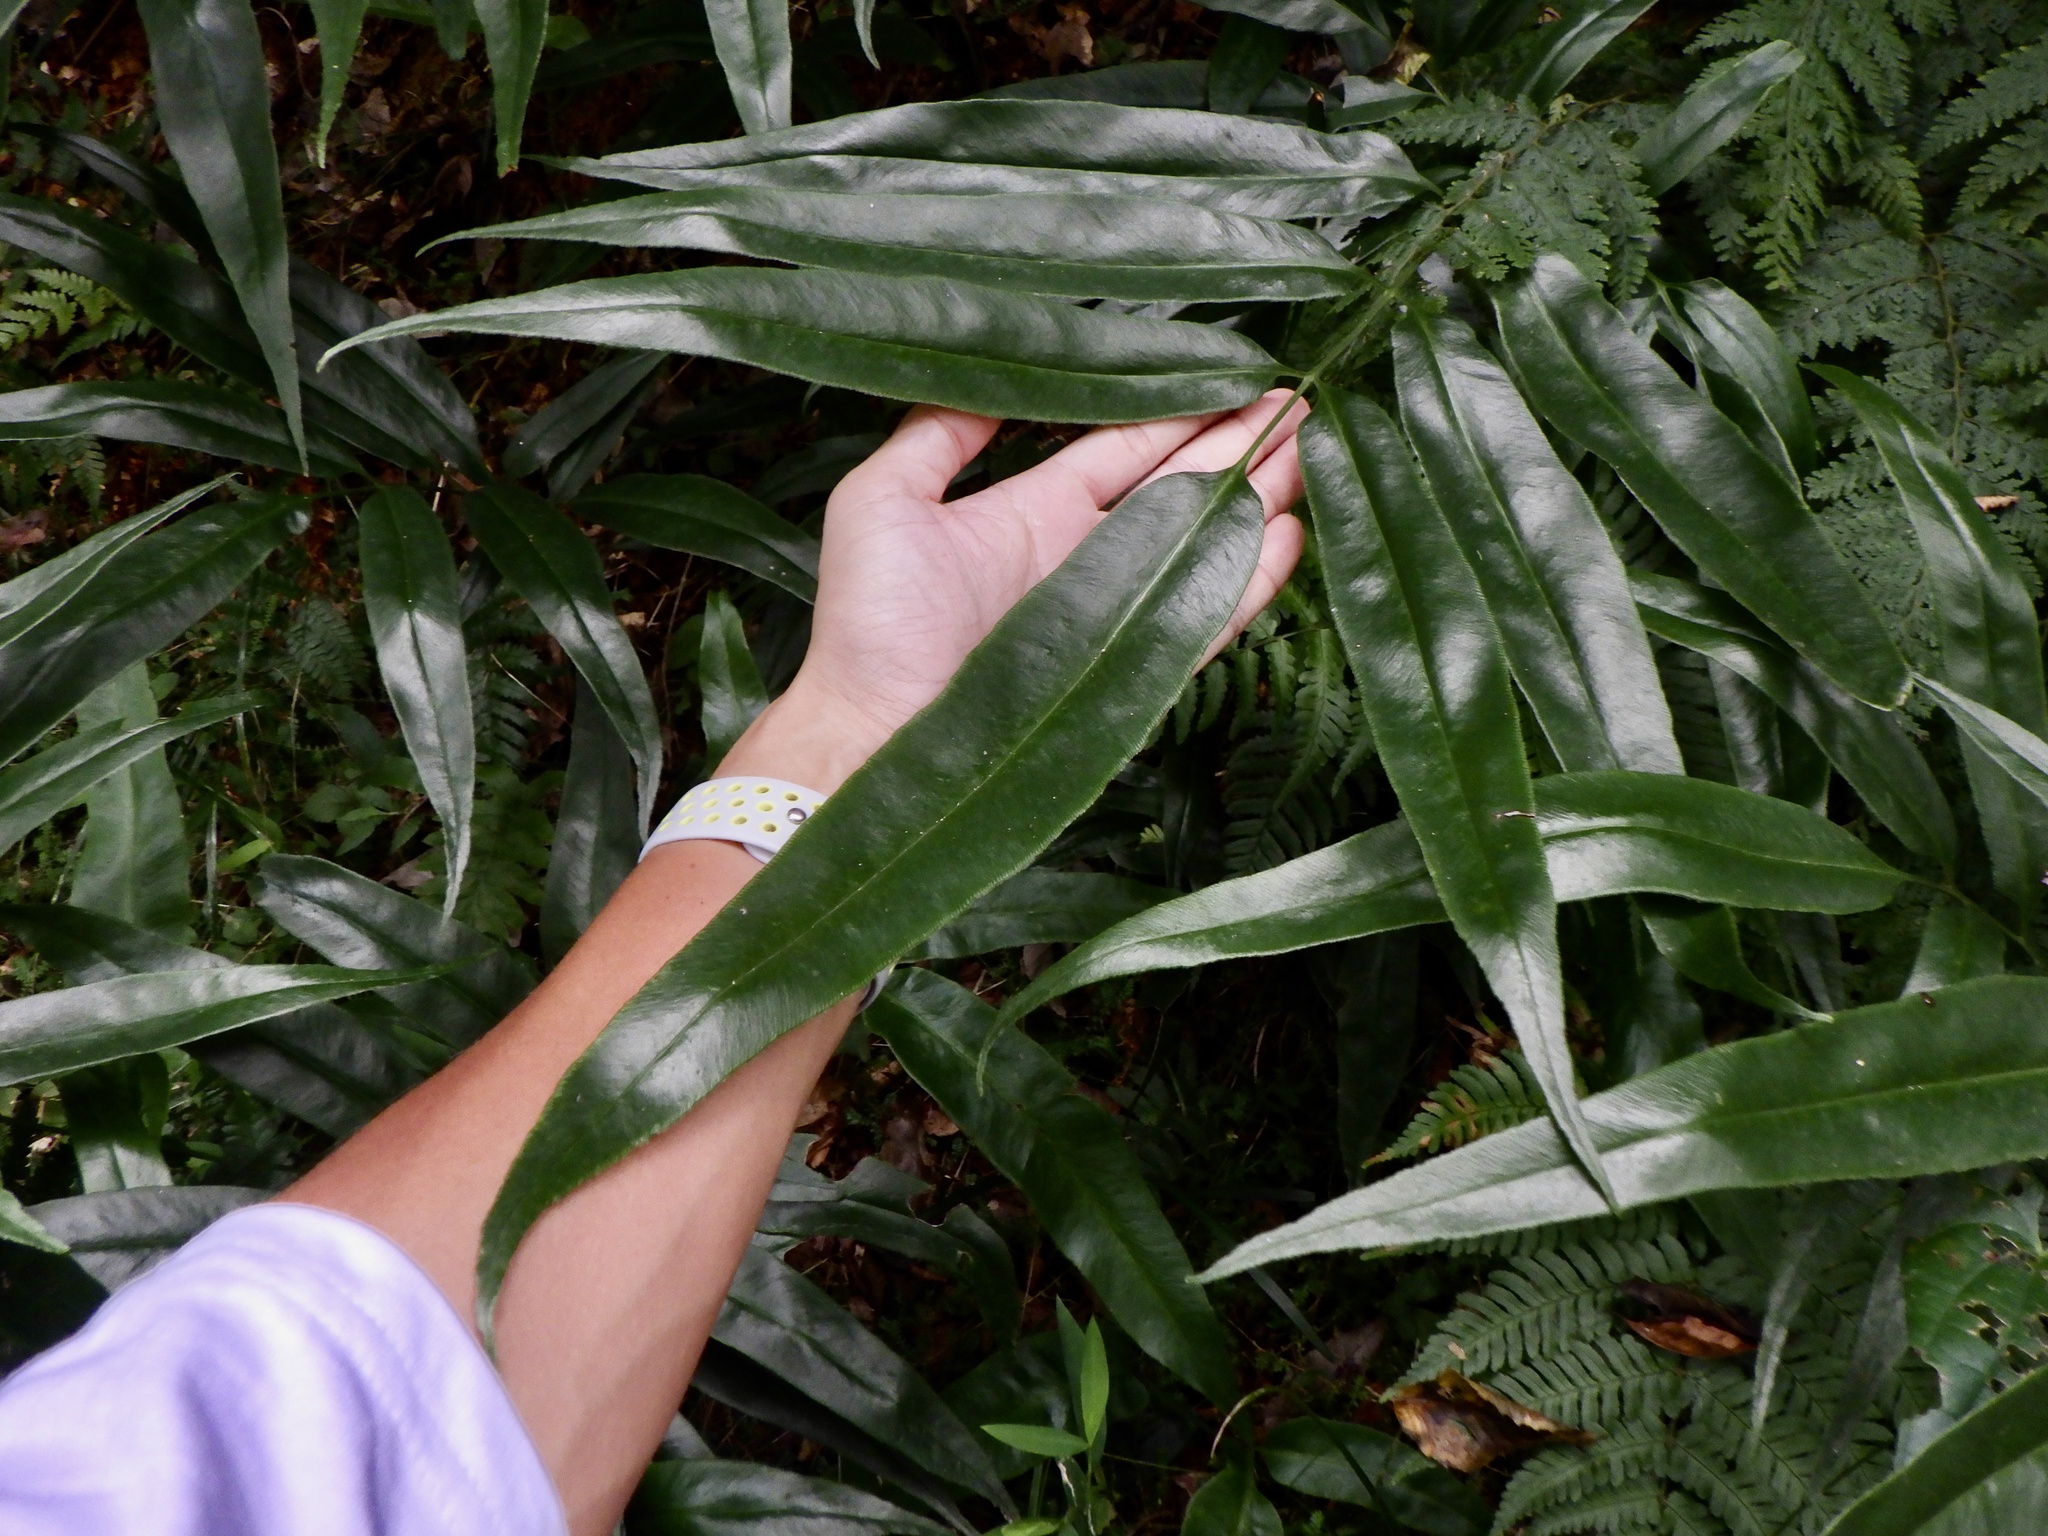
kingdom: Plantae
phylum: Tracheophyta
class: Polypodiopsida
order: Polypodiales
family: Pteridaceae
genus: Coniogramme
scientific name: Coniogramme japonica
